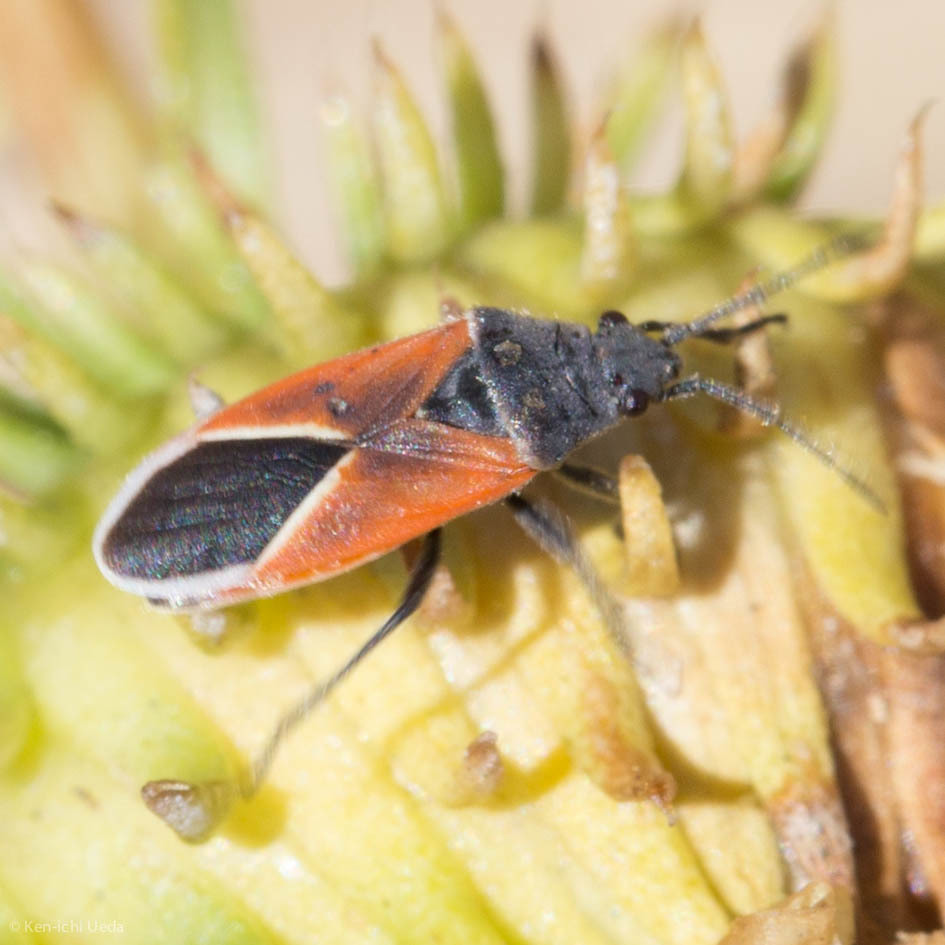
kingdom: Animalia
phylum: Arthropoda
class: Insecta
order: Hemiptera
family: Lygaeidae
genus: Melanopleurus
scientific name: Melanopleurus pyrrhopterus
